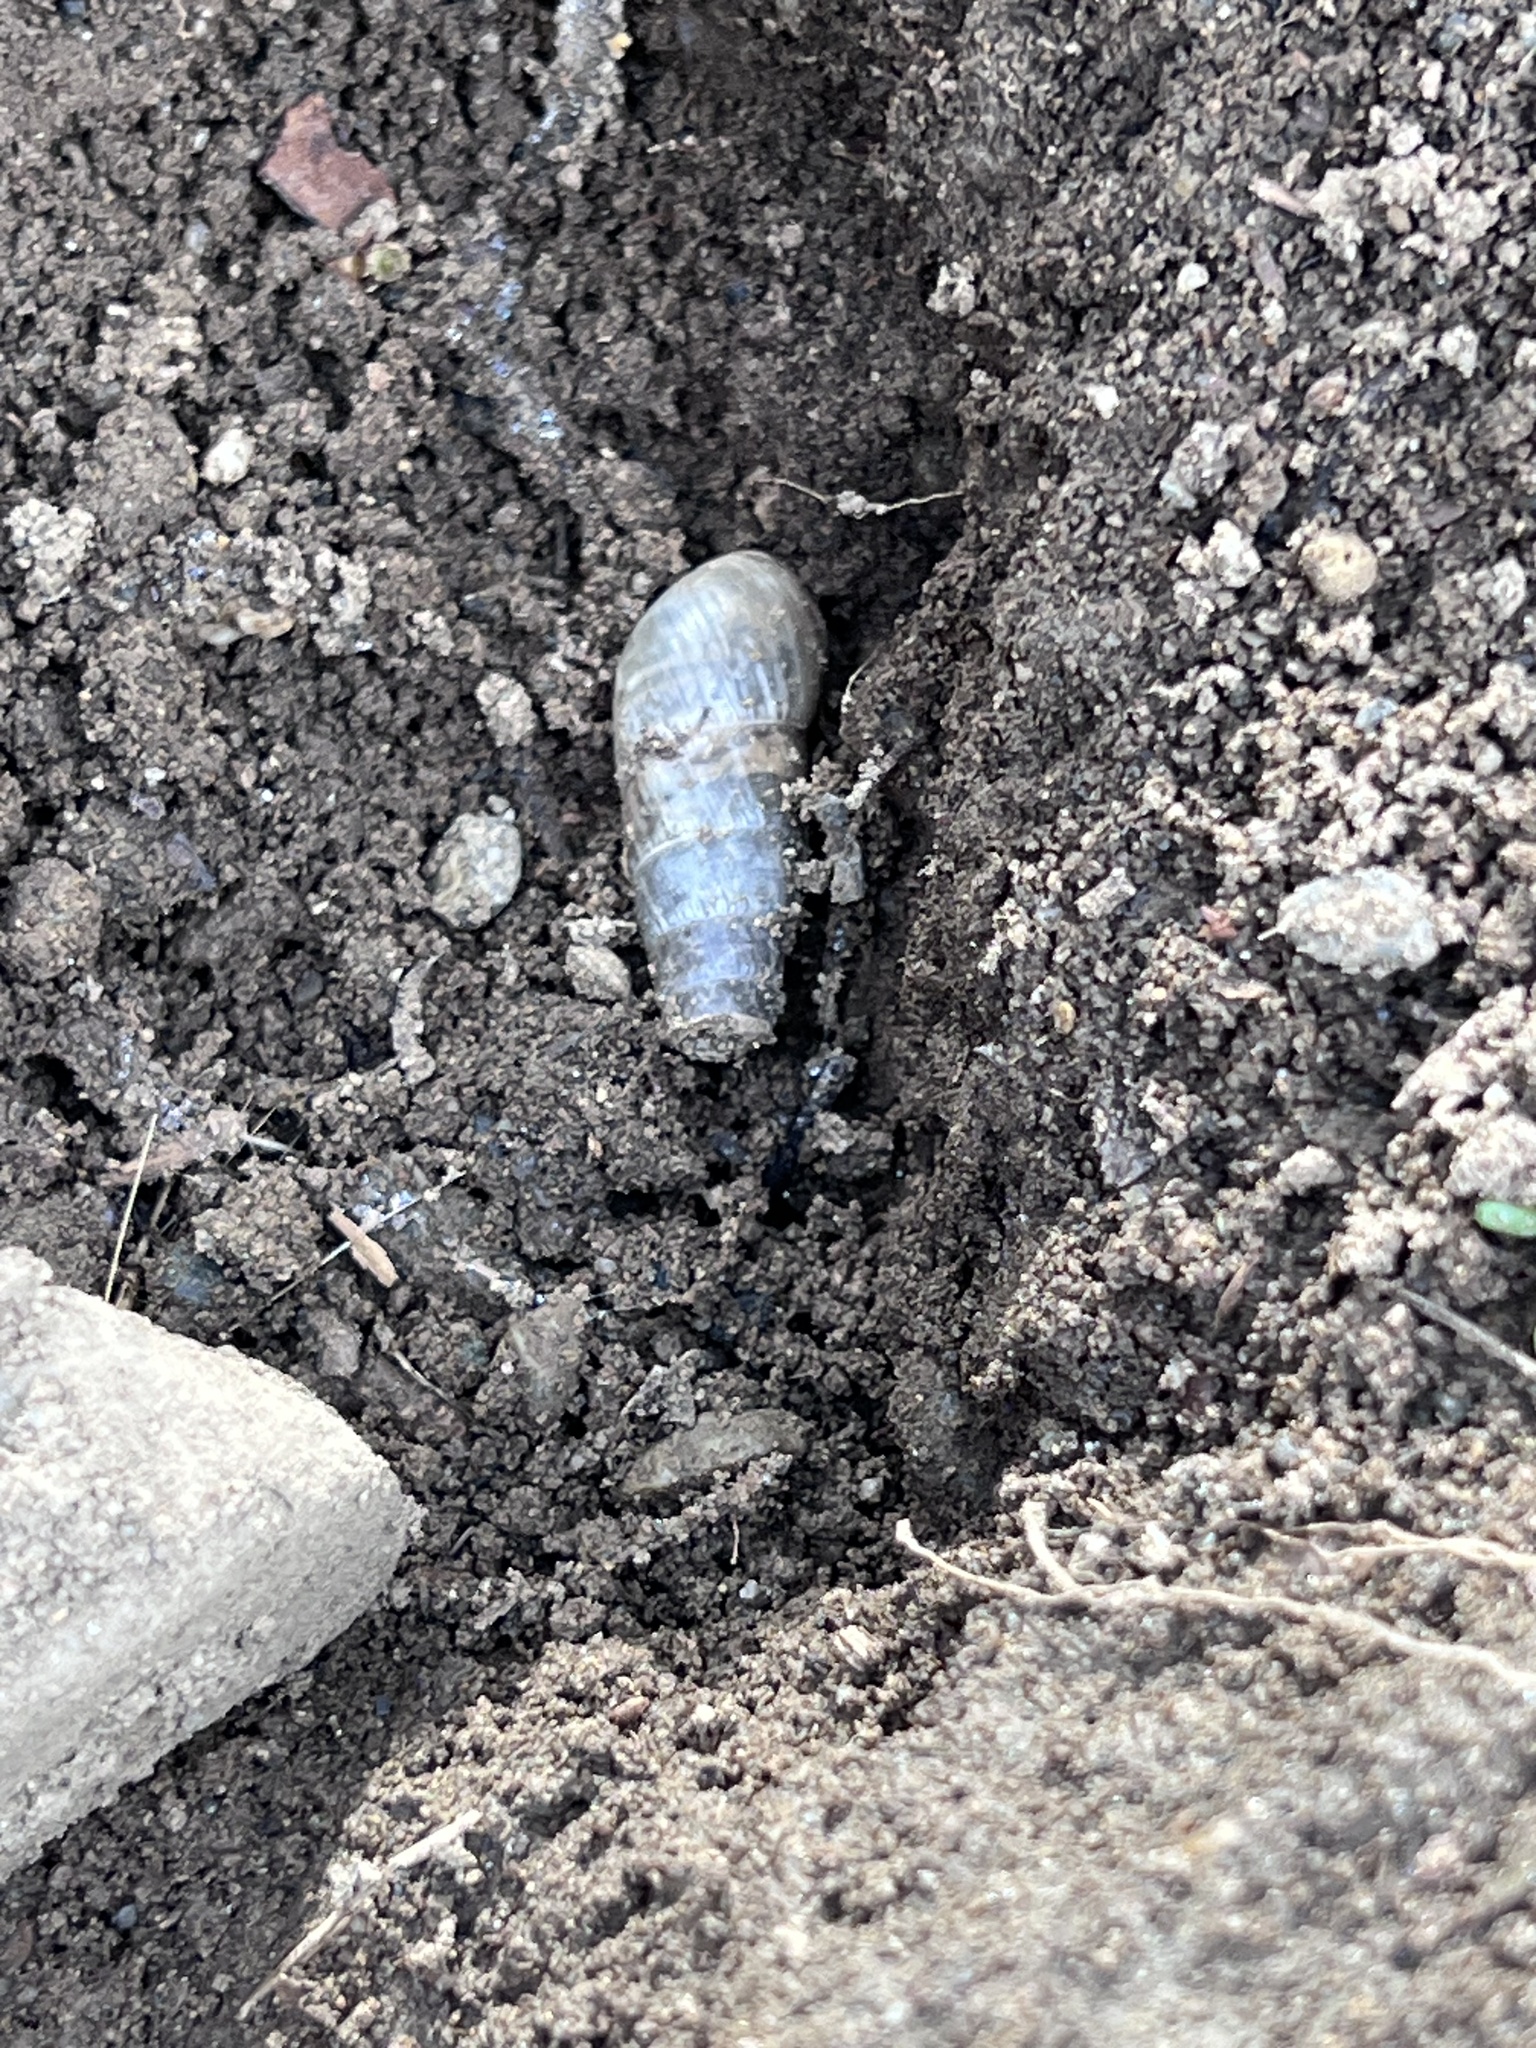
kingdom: Animalia
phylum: Mollusca
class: Gastropoda
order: Stylommatophora
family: Achatinidae
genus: Rumina
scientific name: Rumina decollata
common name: Decollate snail
